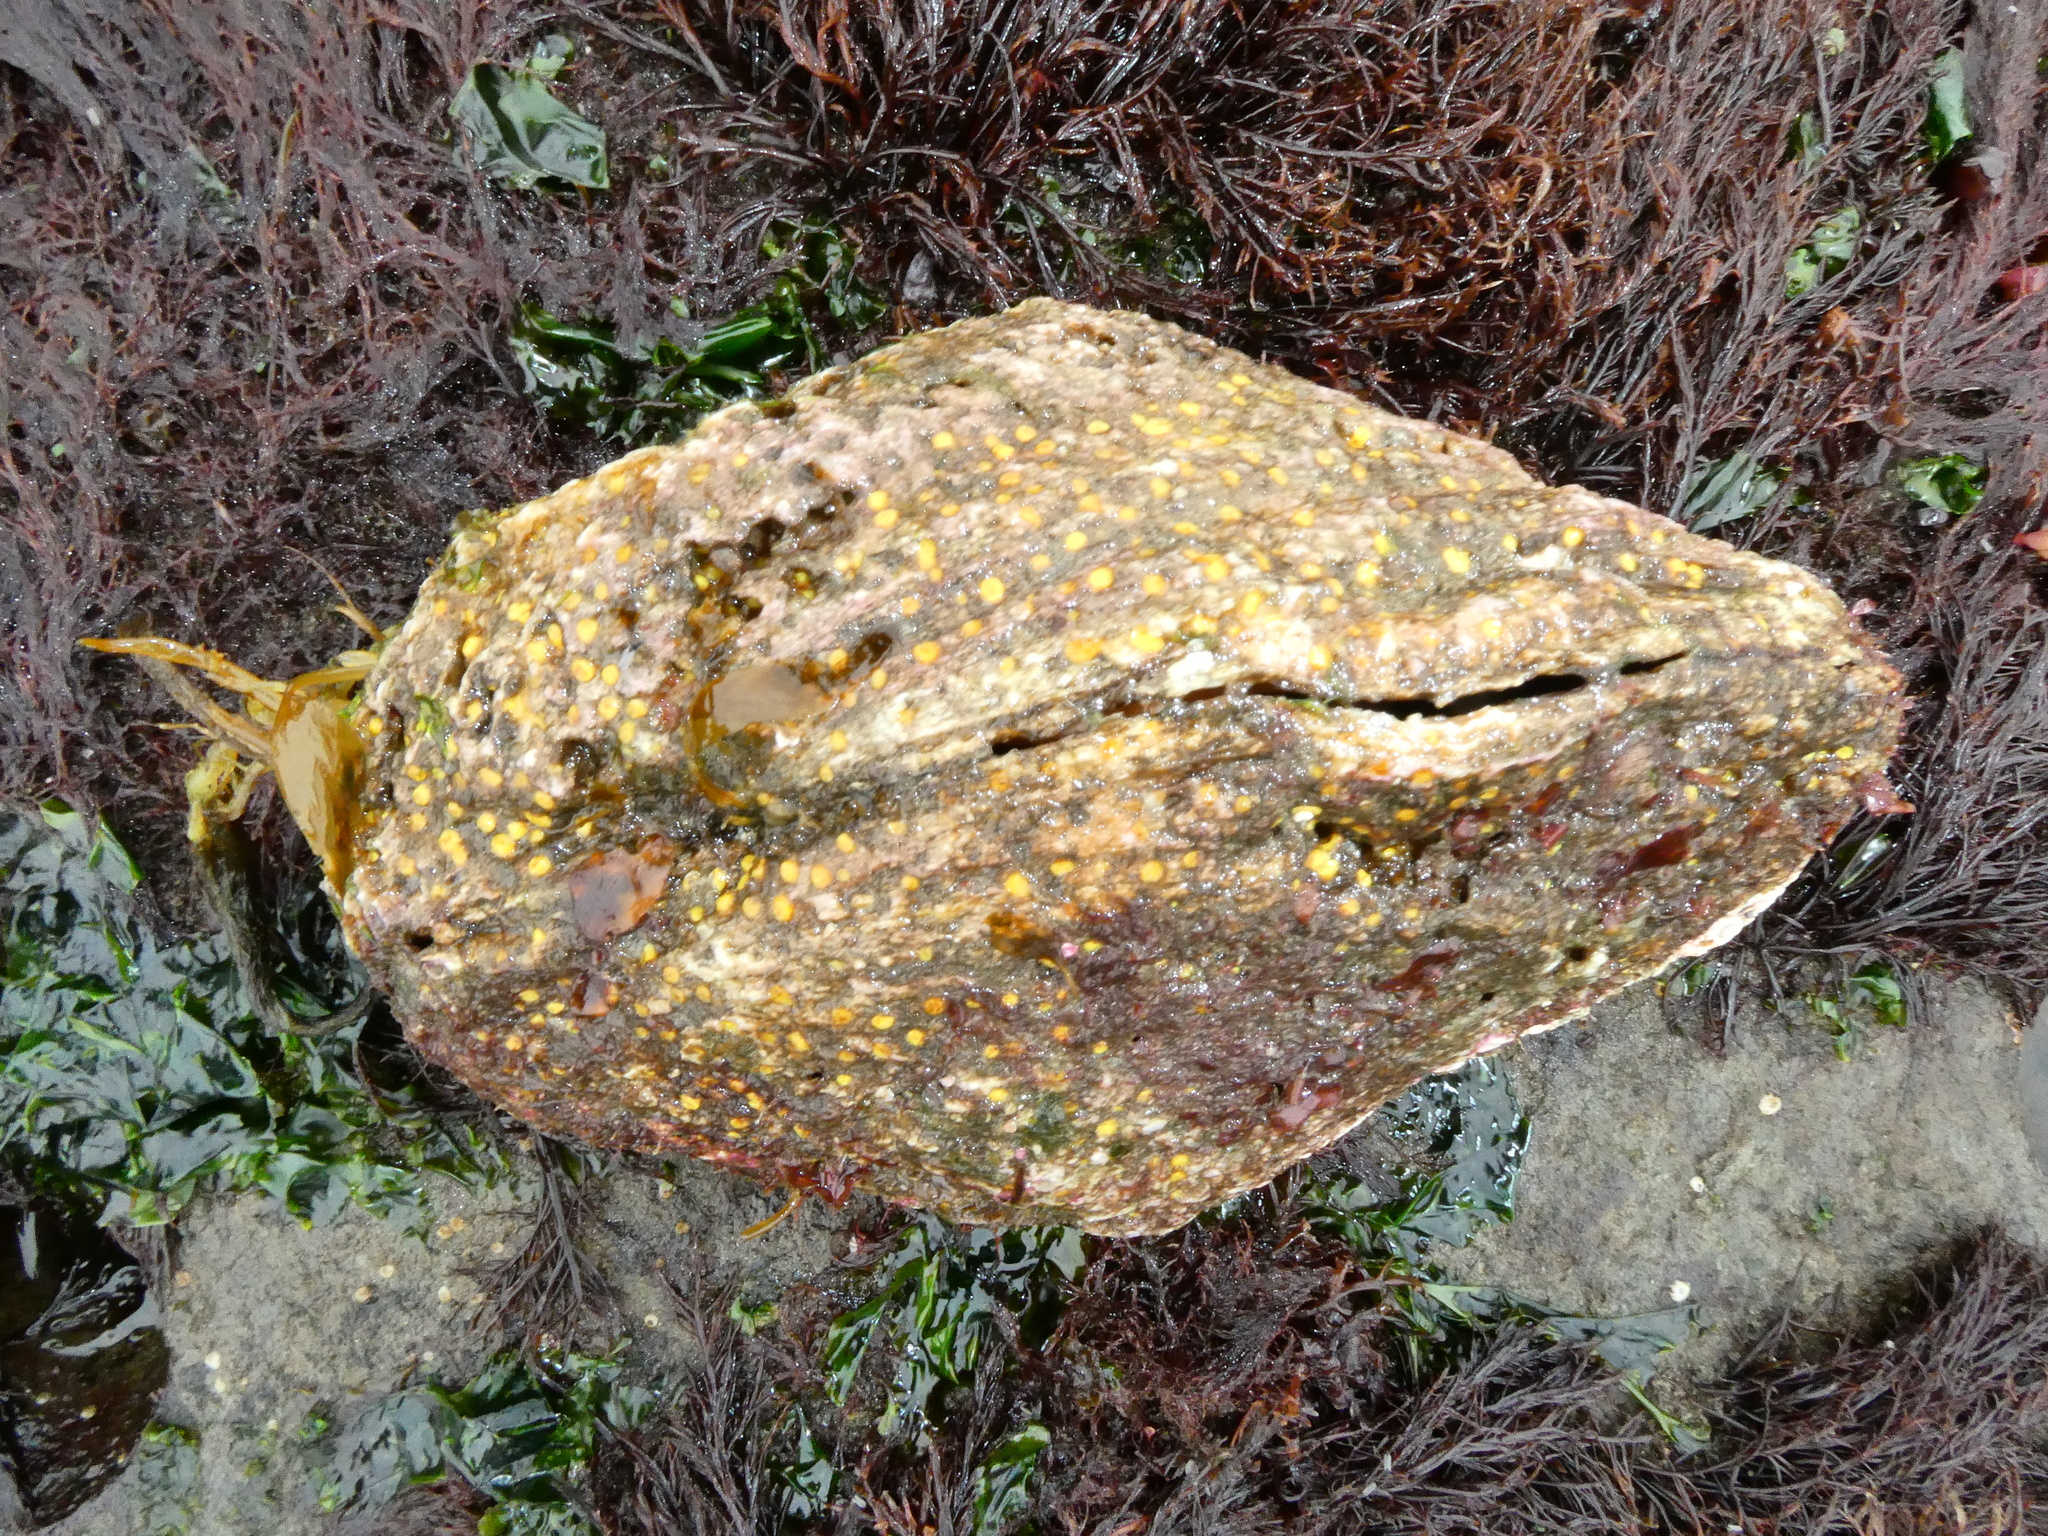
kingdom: Animalia
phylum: Mollusca
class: Bivalvia
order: Pectinida
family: Pectinidae
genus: Crassadoma
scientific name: Crassadoma gigantea
